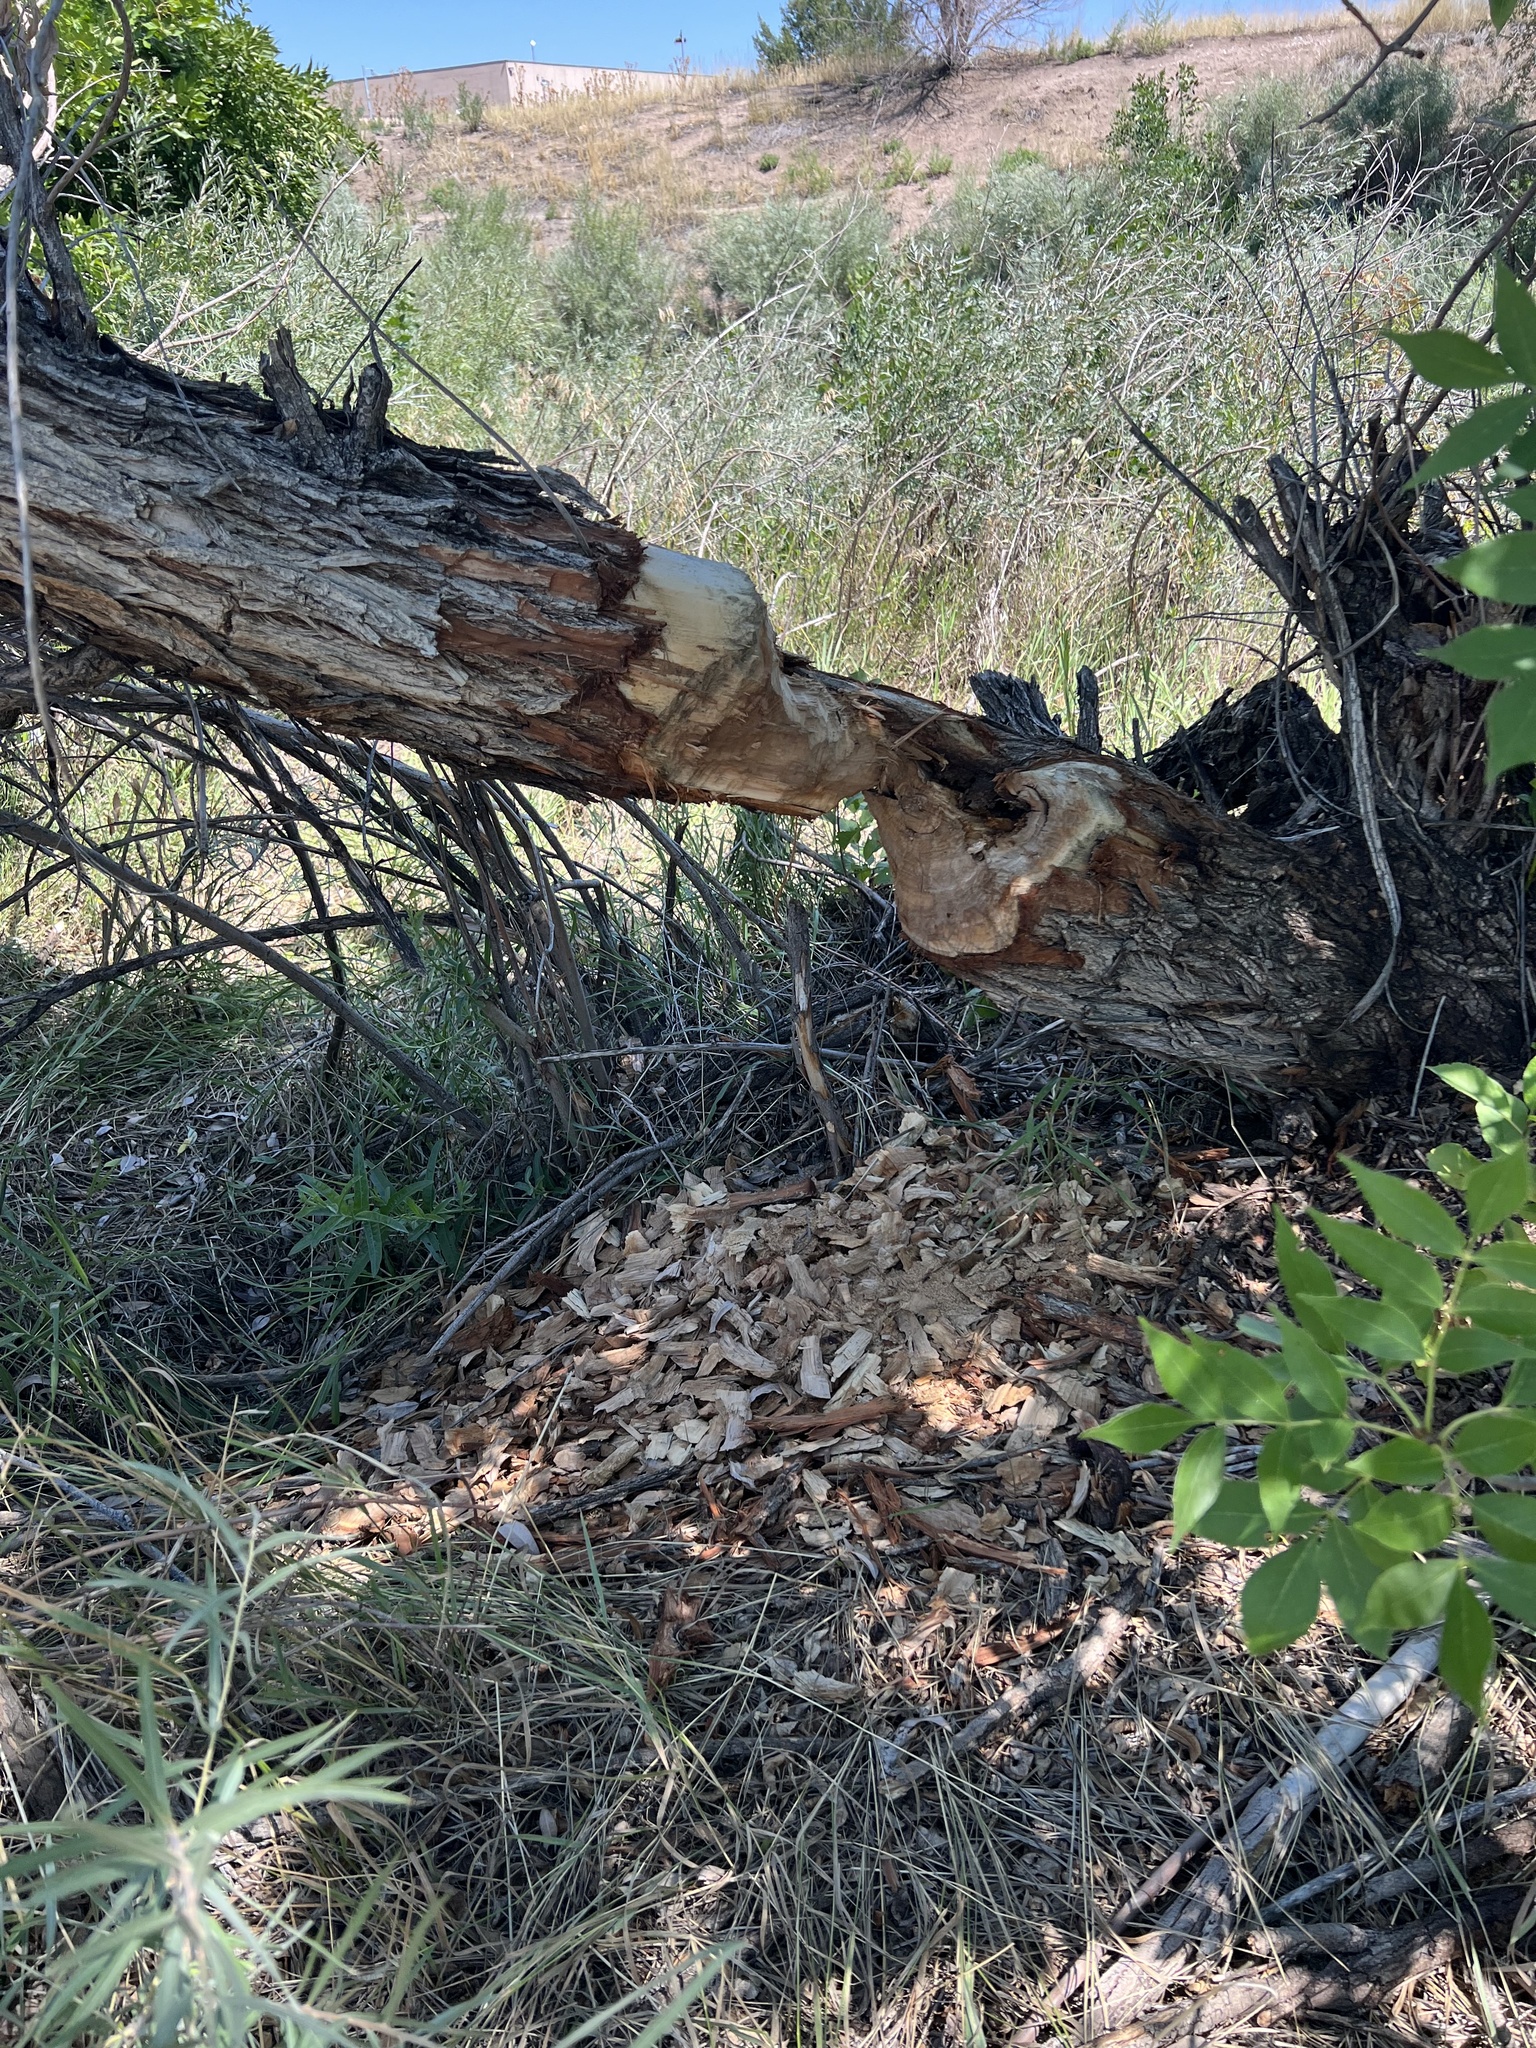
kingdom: Animalia
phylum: Chordata
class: Mammalia
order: Rodentia
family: Castoridae
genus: Castor
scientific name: Castor canadensis
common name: American beaver
